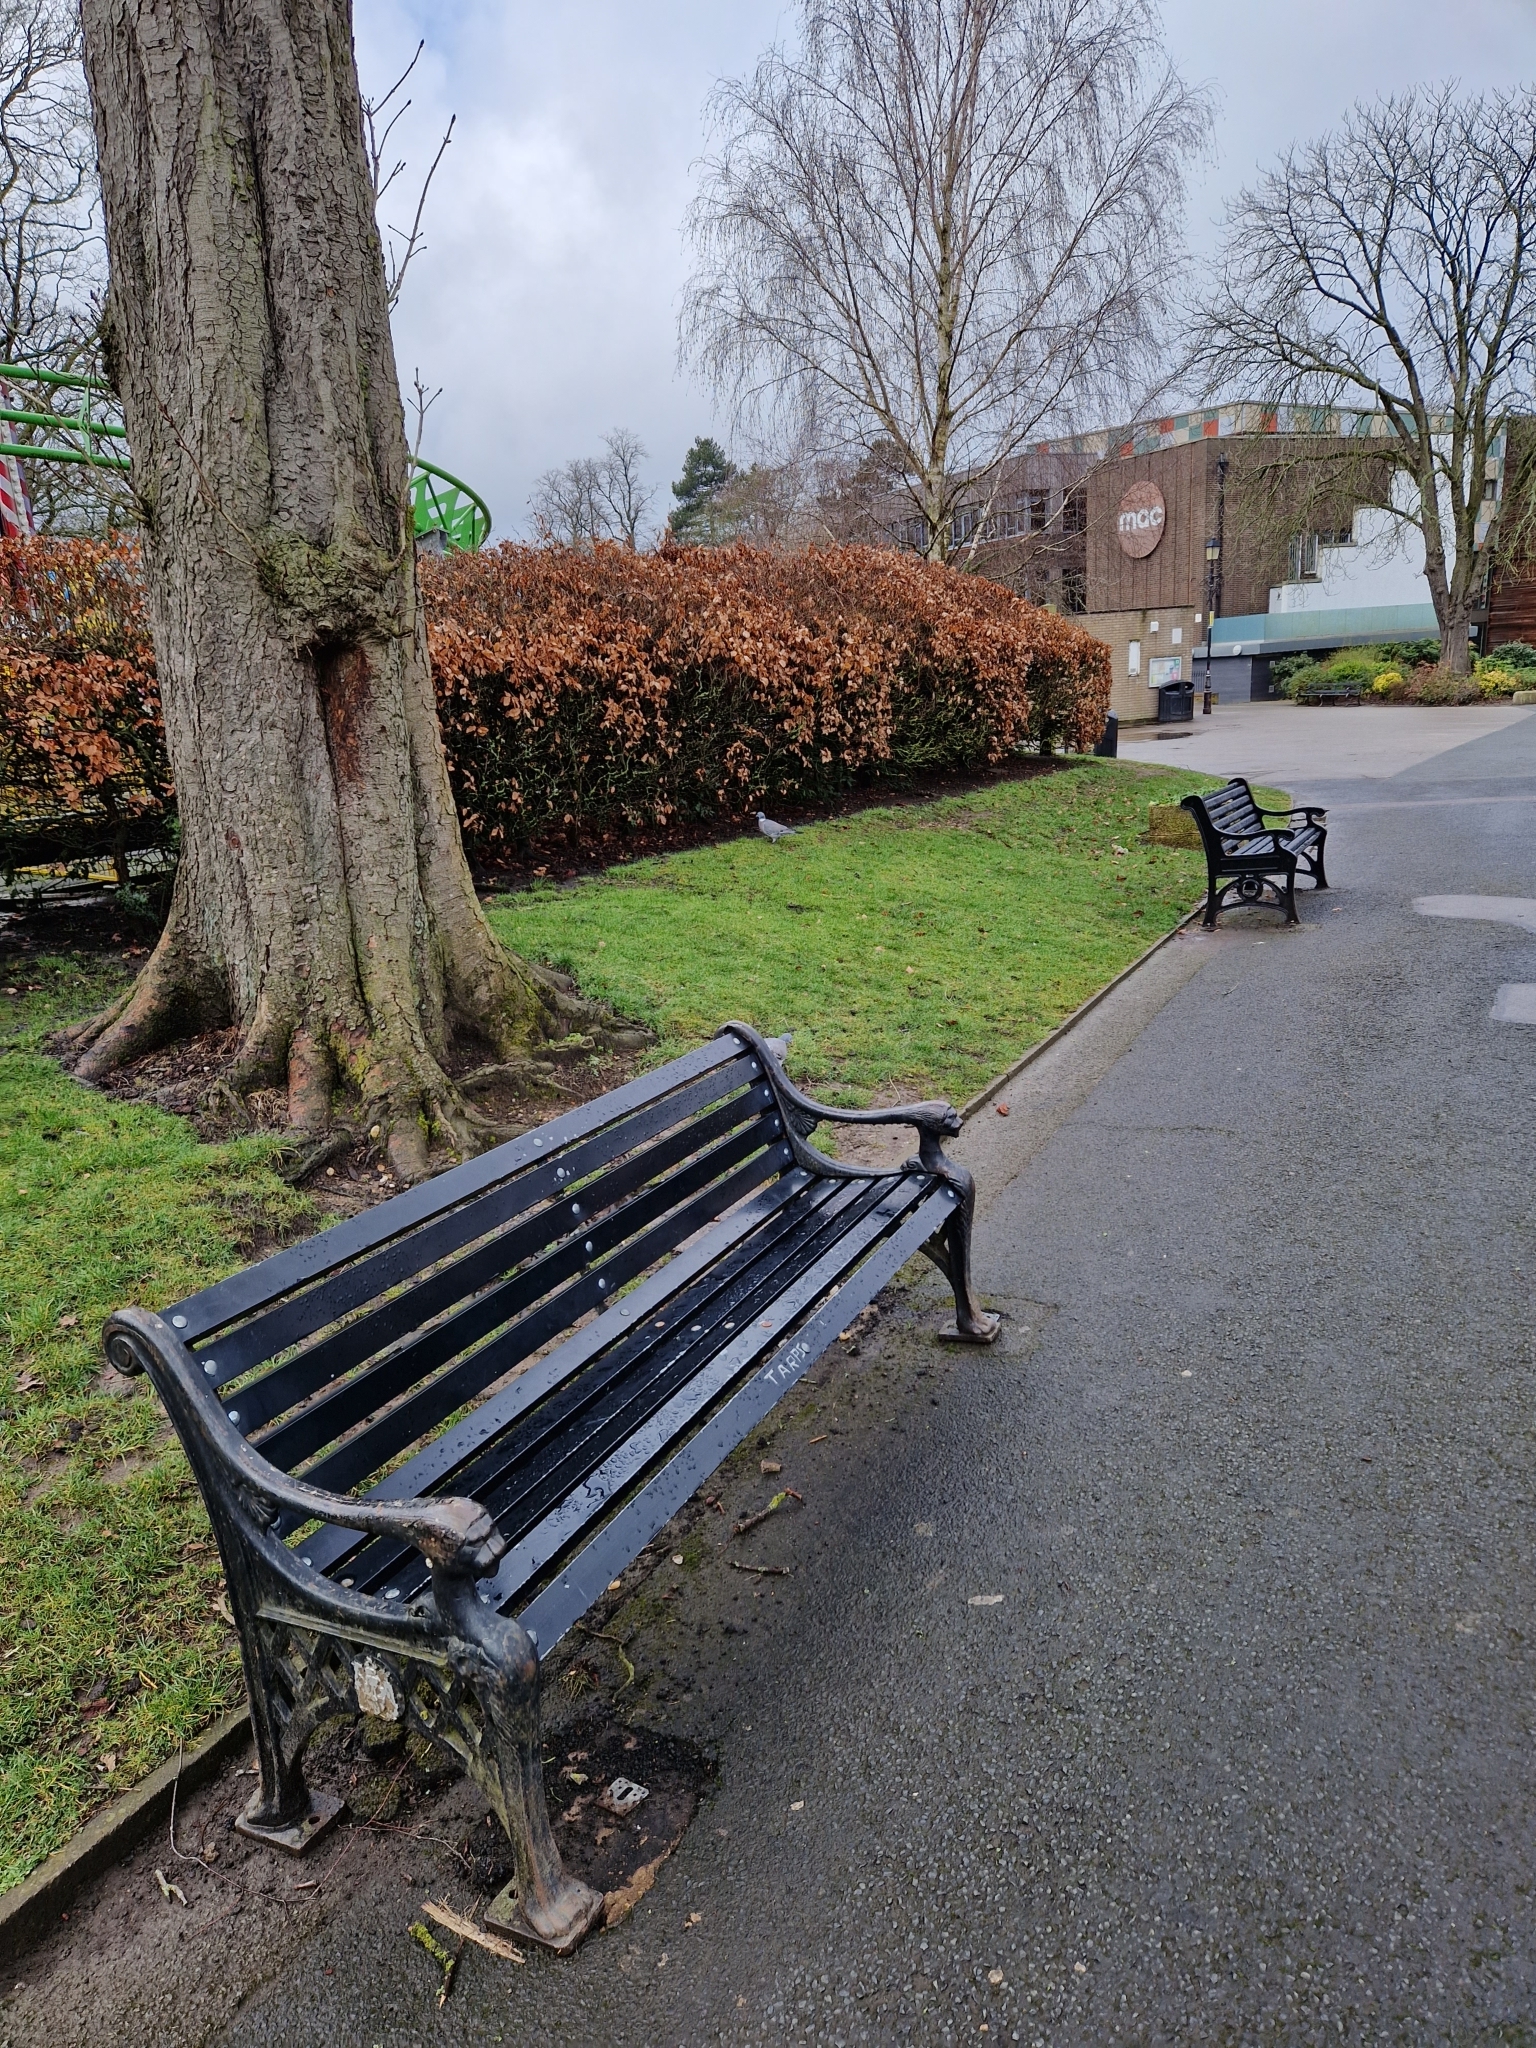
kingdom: Animalia
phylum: Chordata
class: Aves
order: Columbiformes
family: Columbidae
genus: Columba
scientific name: Columba palumbus
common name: Common wood pigeon
